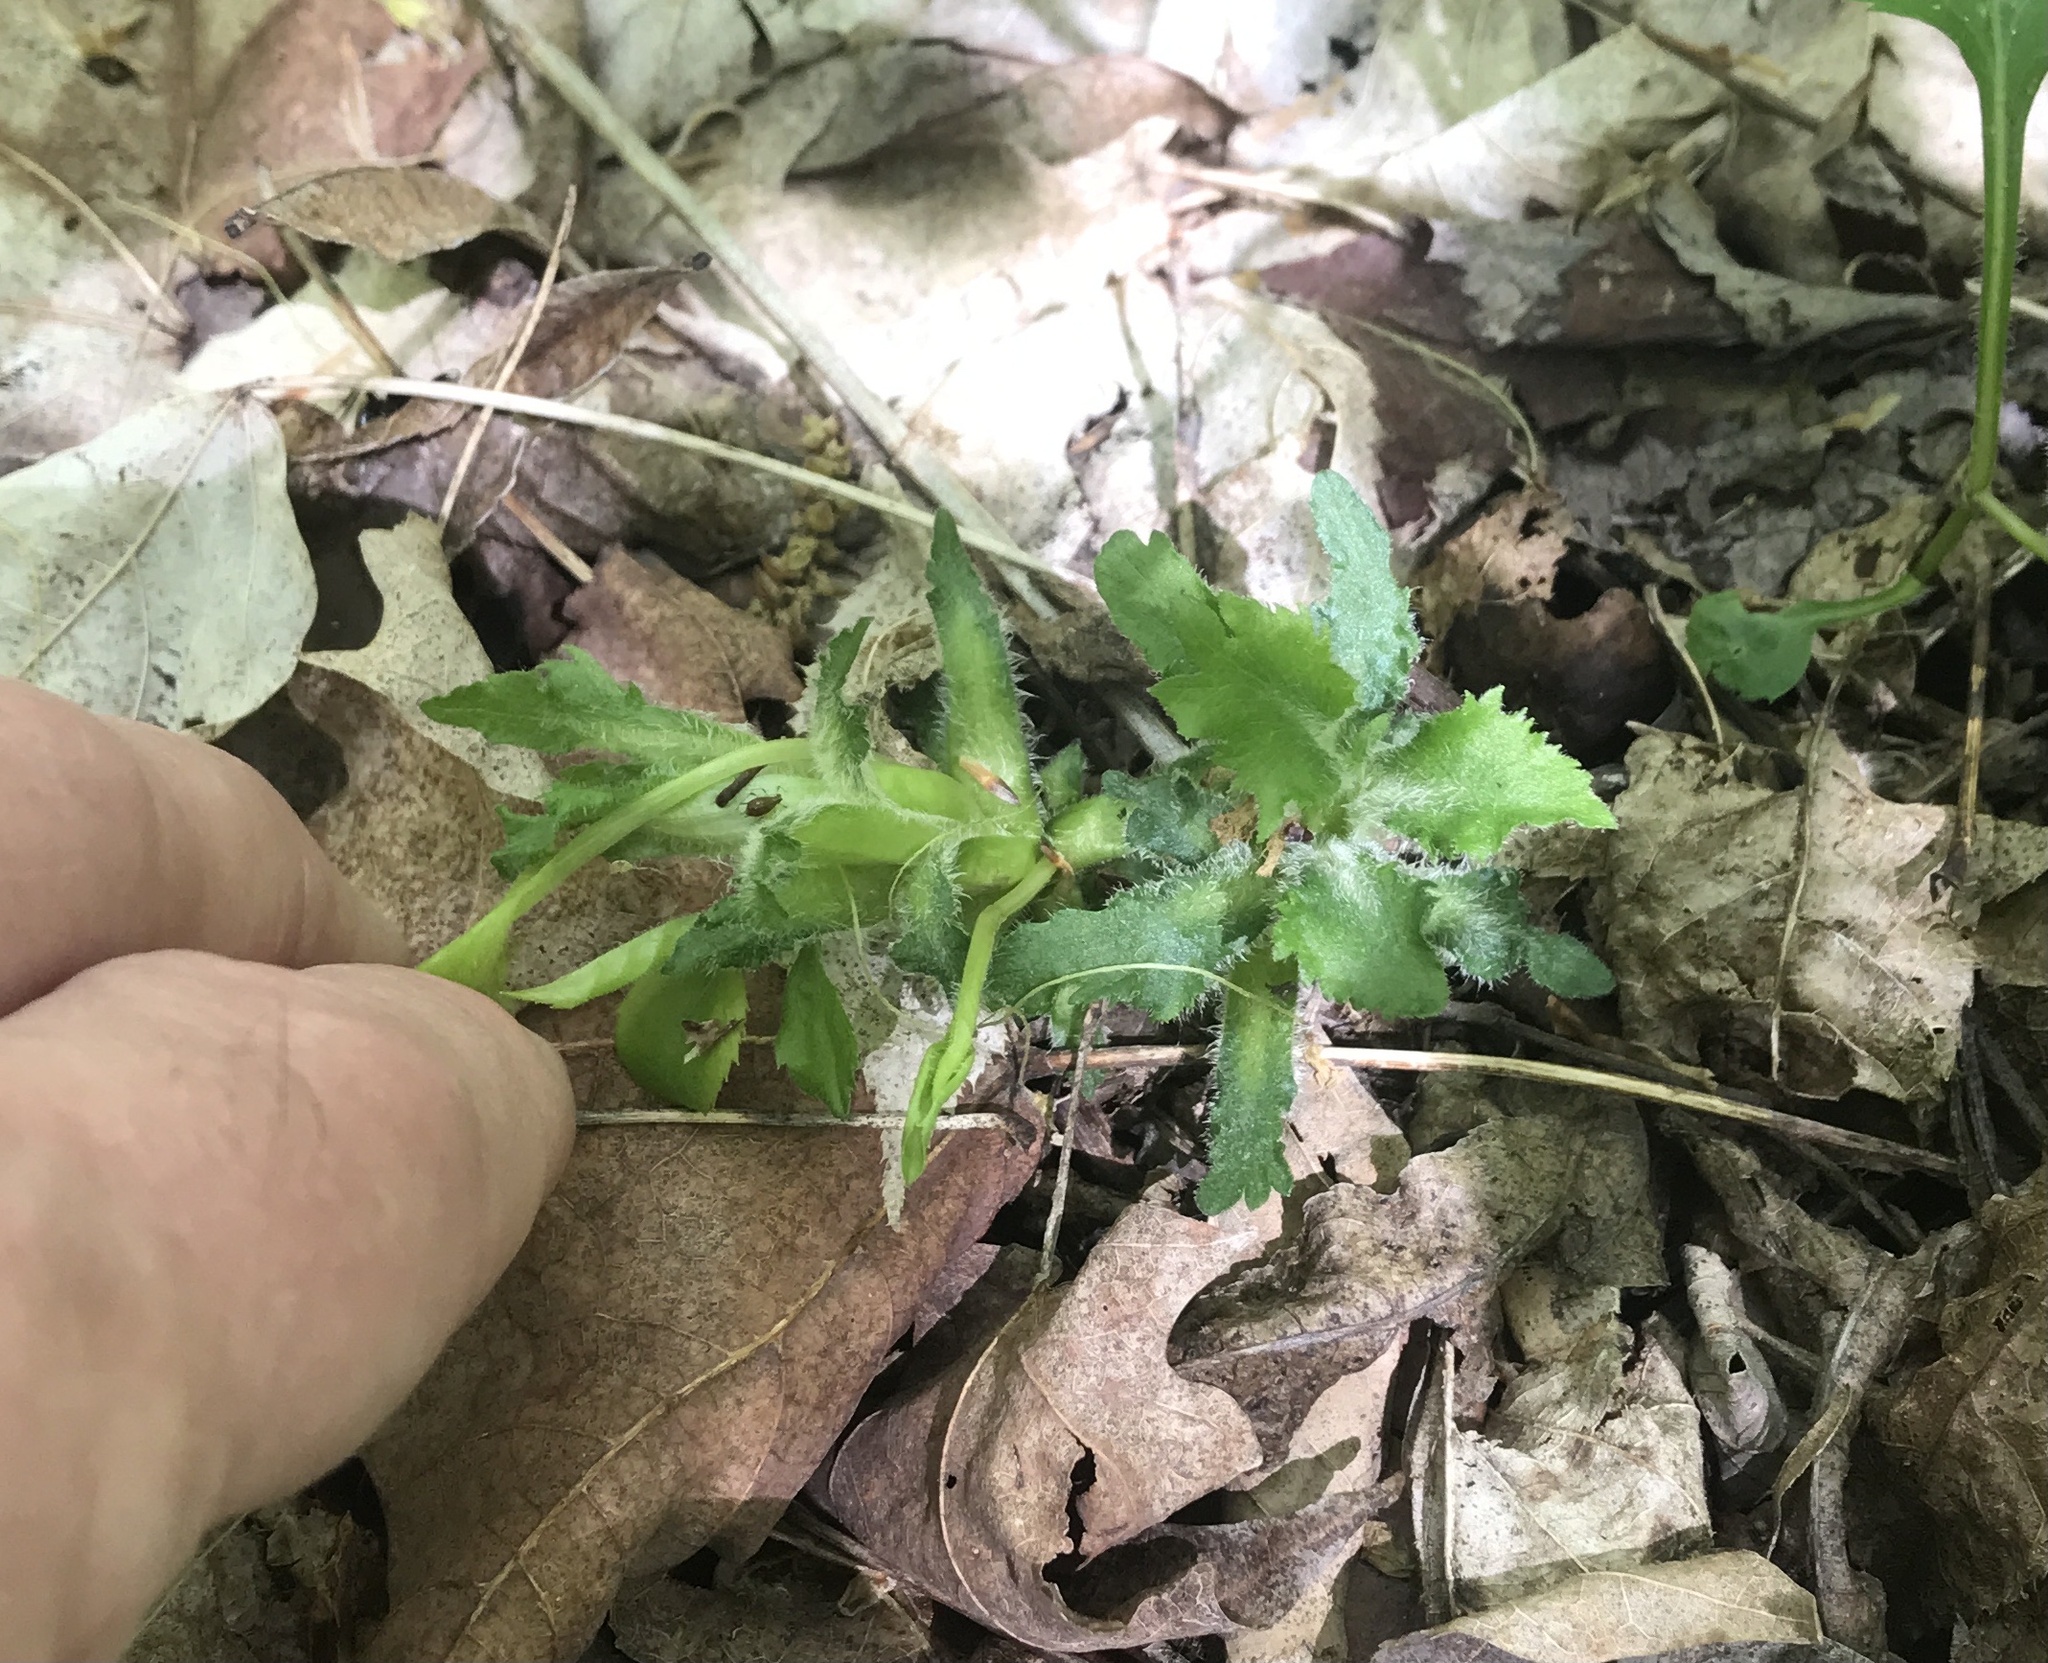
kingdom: Plantae
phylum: Tracheophyta
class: Magnoliopsida
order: Asterales
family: Asteraceae
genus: Solidago
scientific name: Solidago flexicaulis
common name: Zig-zag goldenrod
